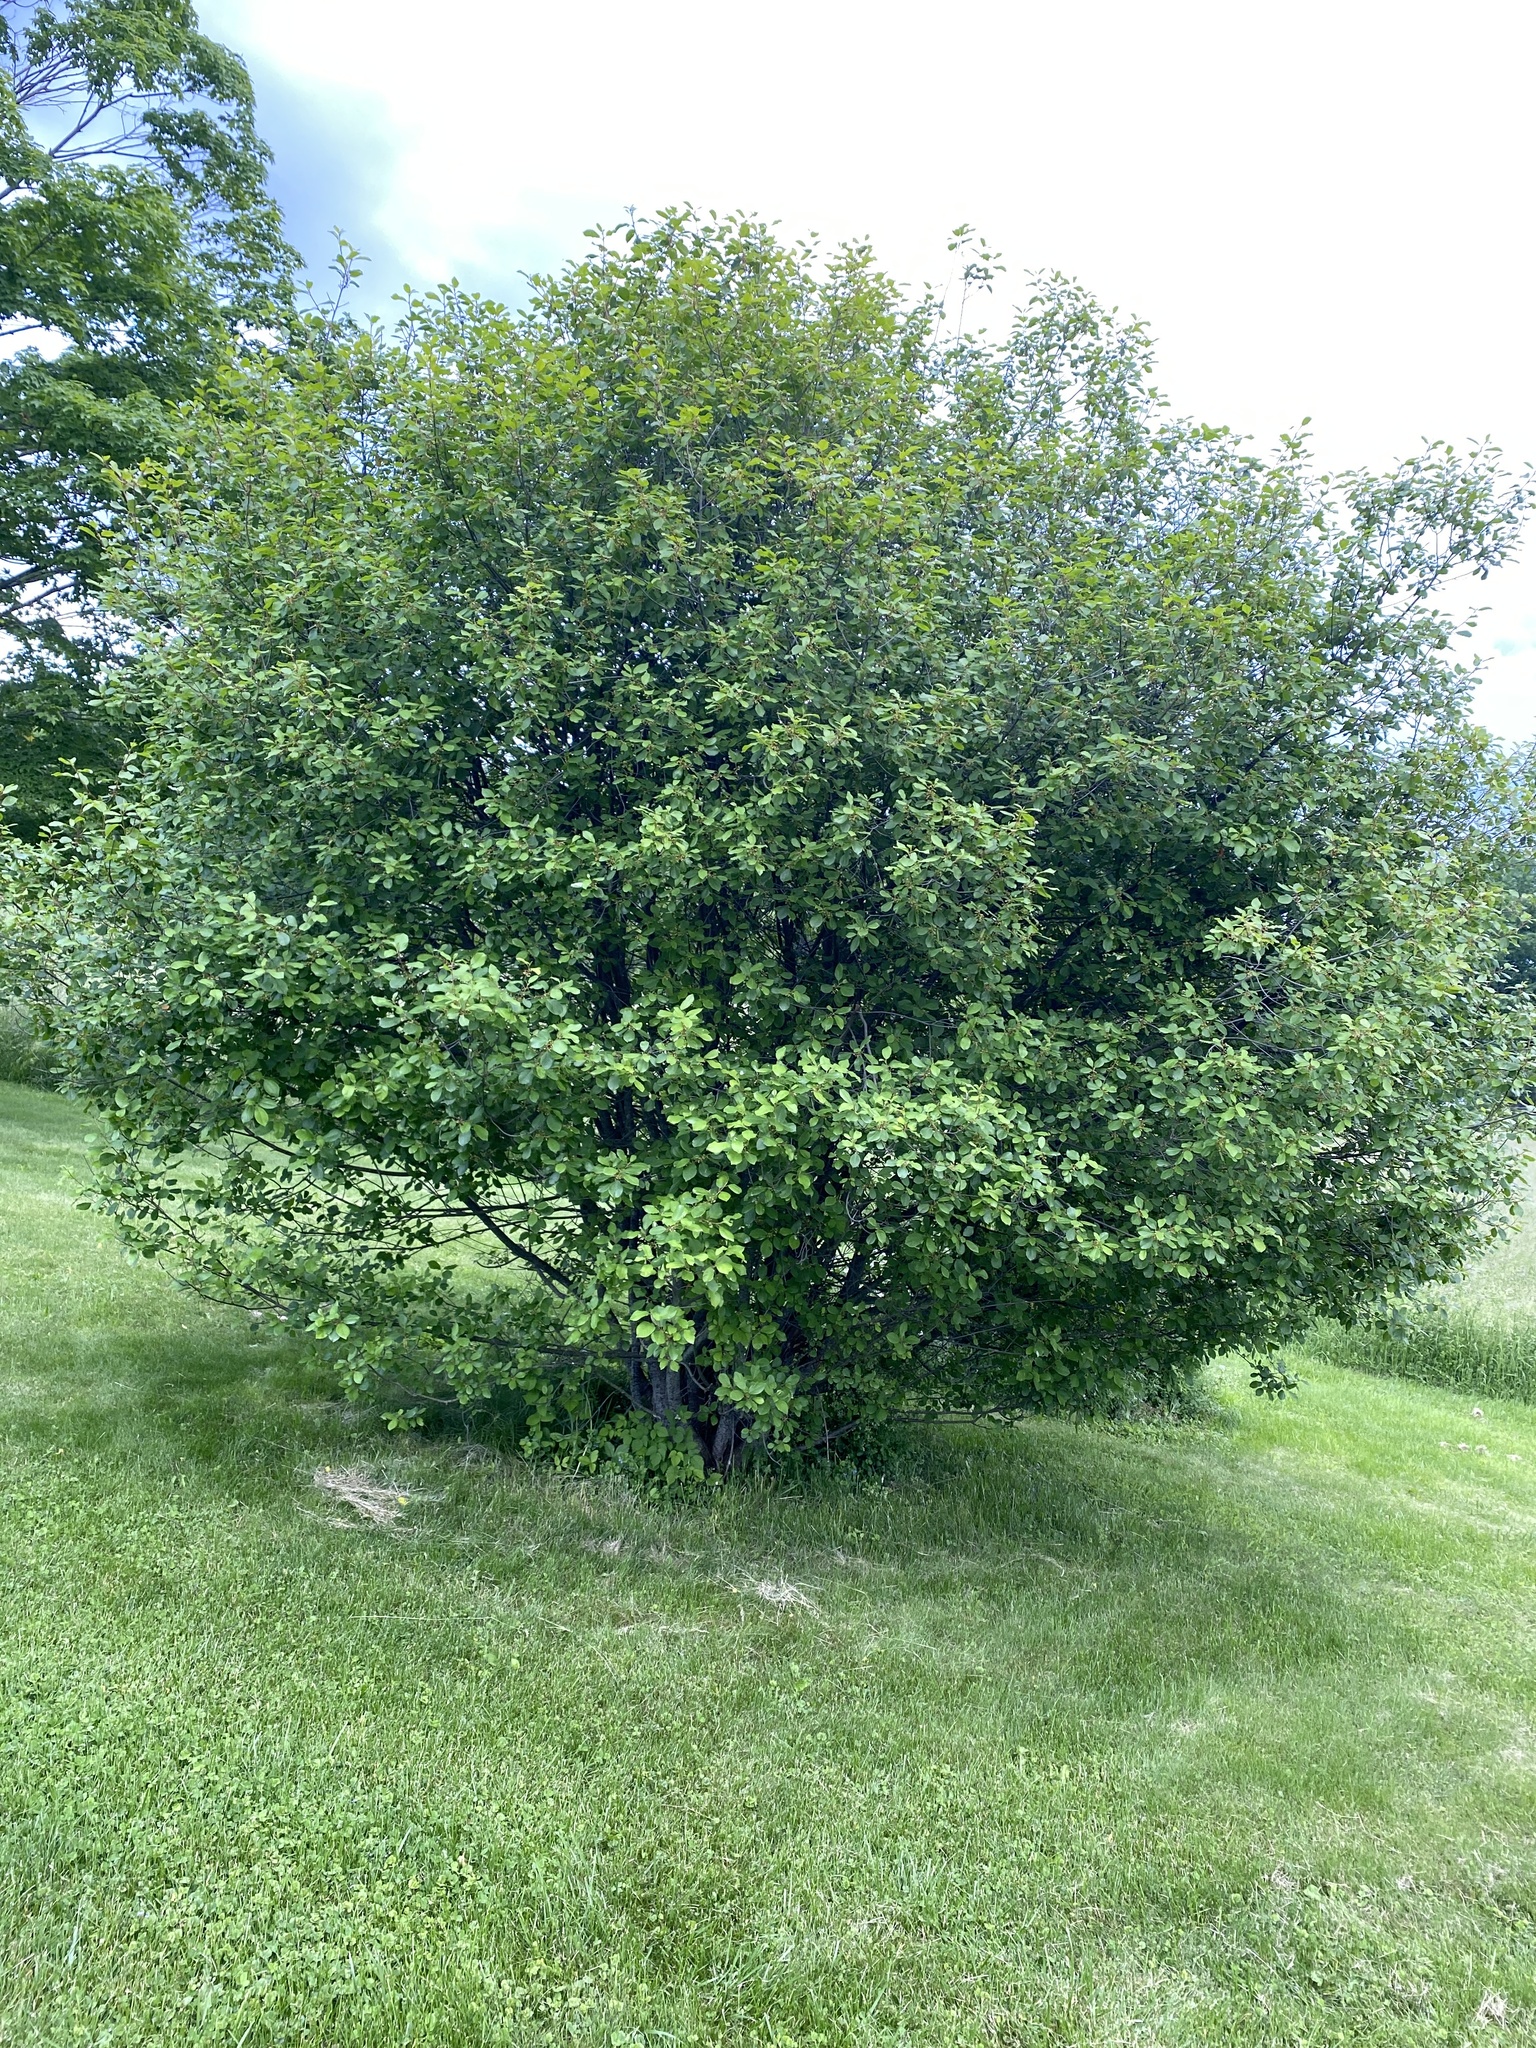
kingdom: Plantae
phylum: Tracheophyta
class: Magnoliopsida
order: Rosales
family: Rhamnaceae
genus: Frangula
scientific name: Frangula alnus
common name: Alder buckthorn
